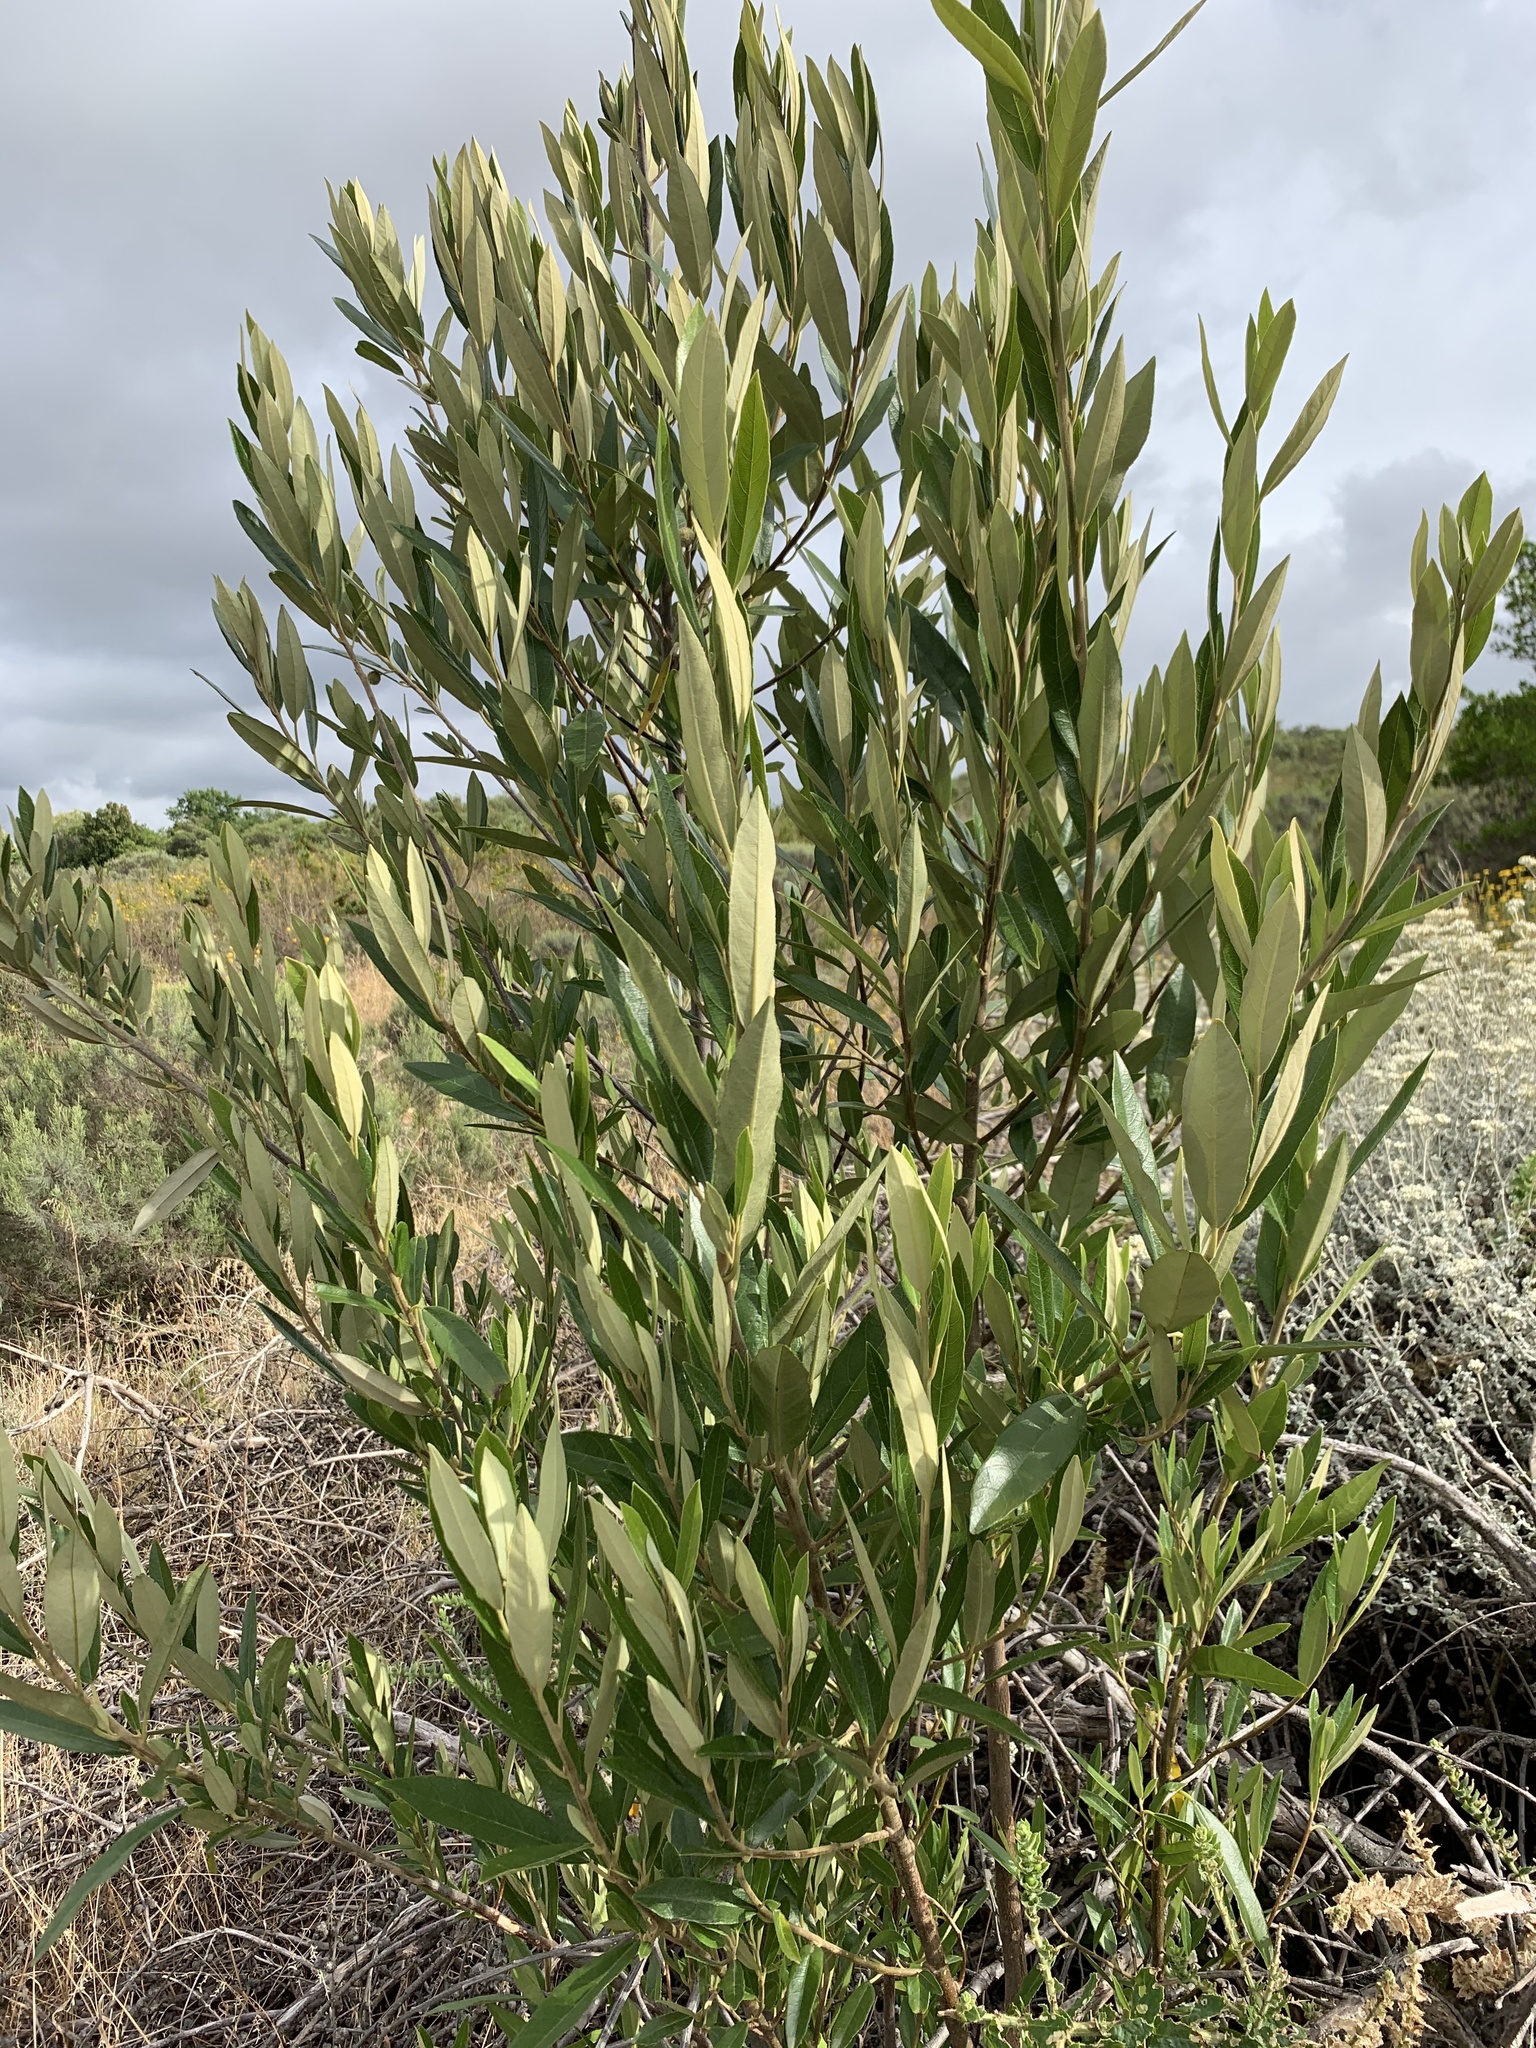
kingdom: Plantae
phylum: Tracheophyta
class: Magnoliopsida
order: Malpighiales
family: Achariaceae
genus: Kiggelaria
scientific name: Kiggelaria africana
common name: Wild peach
